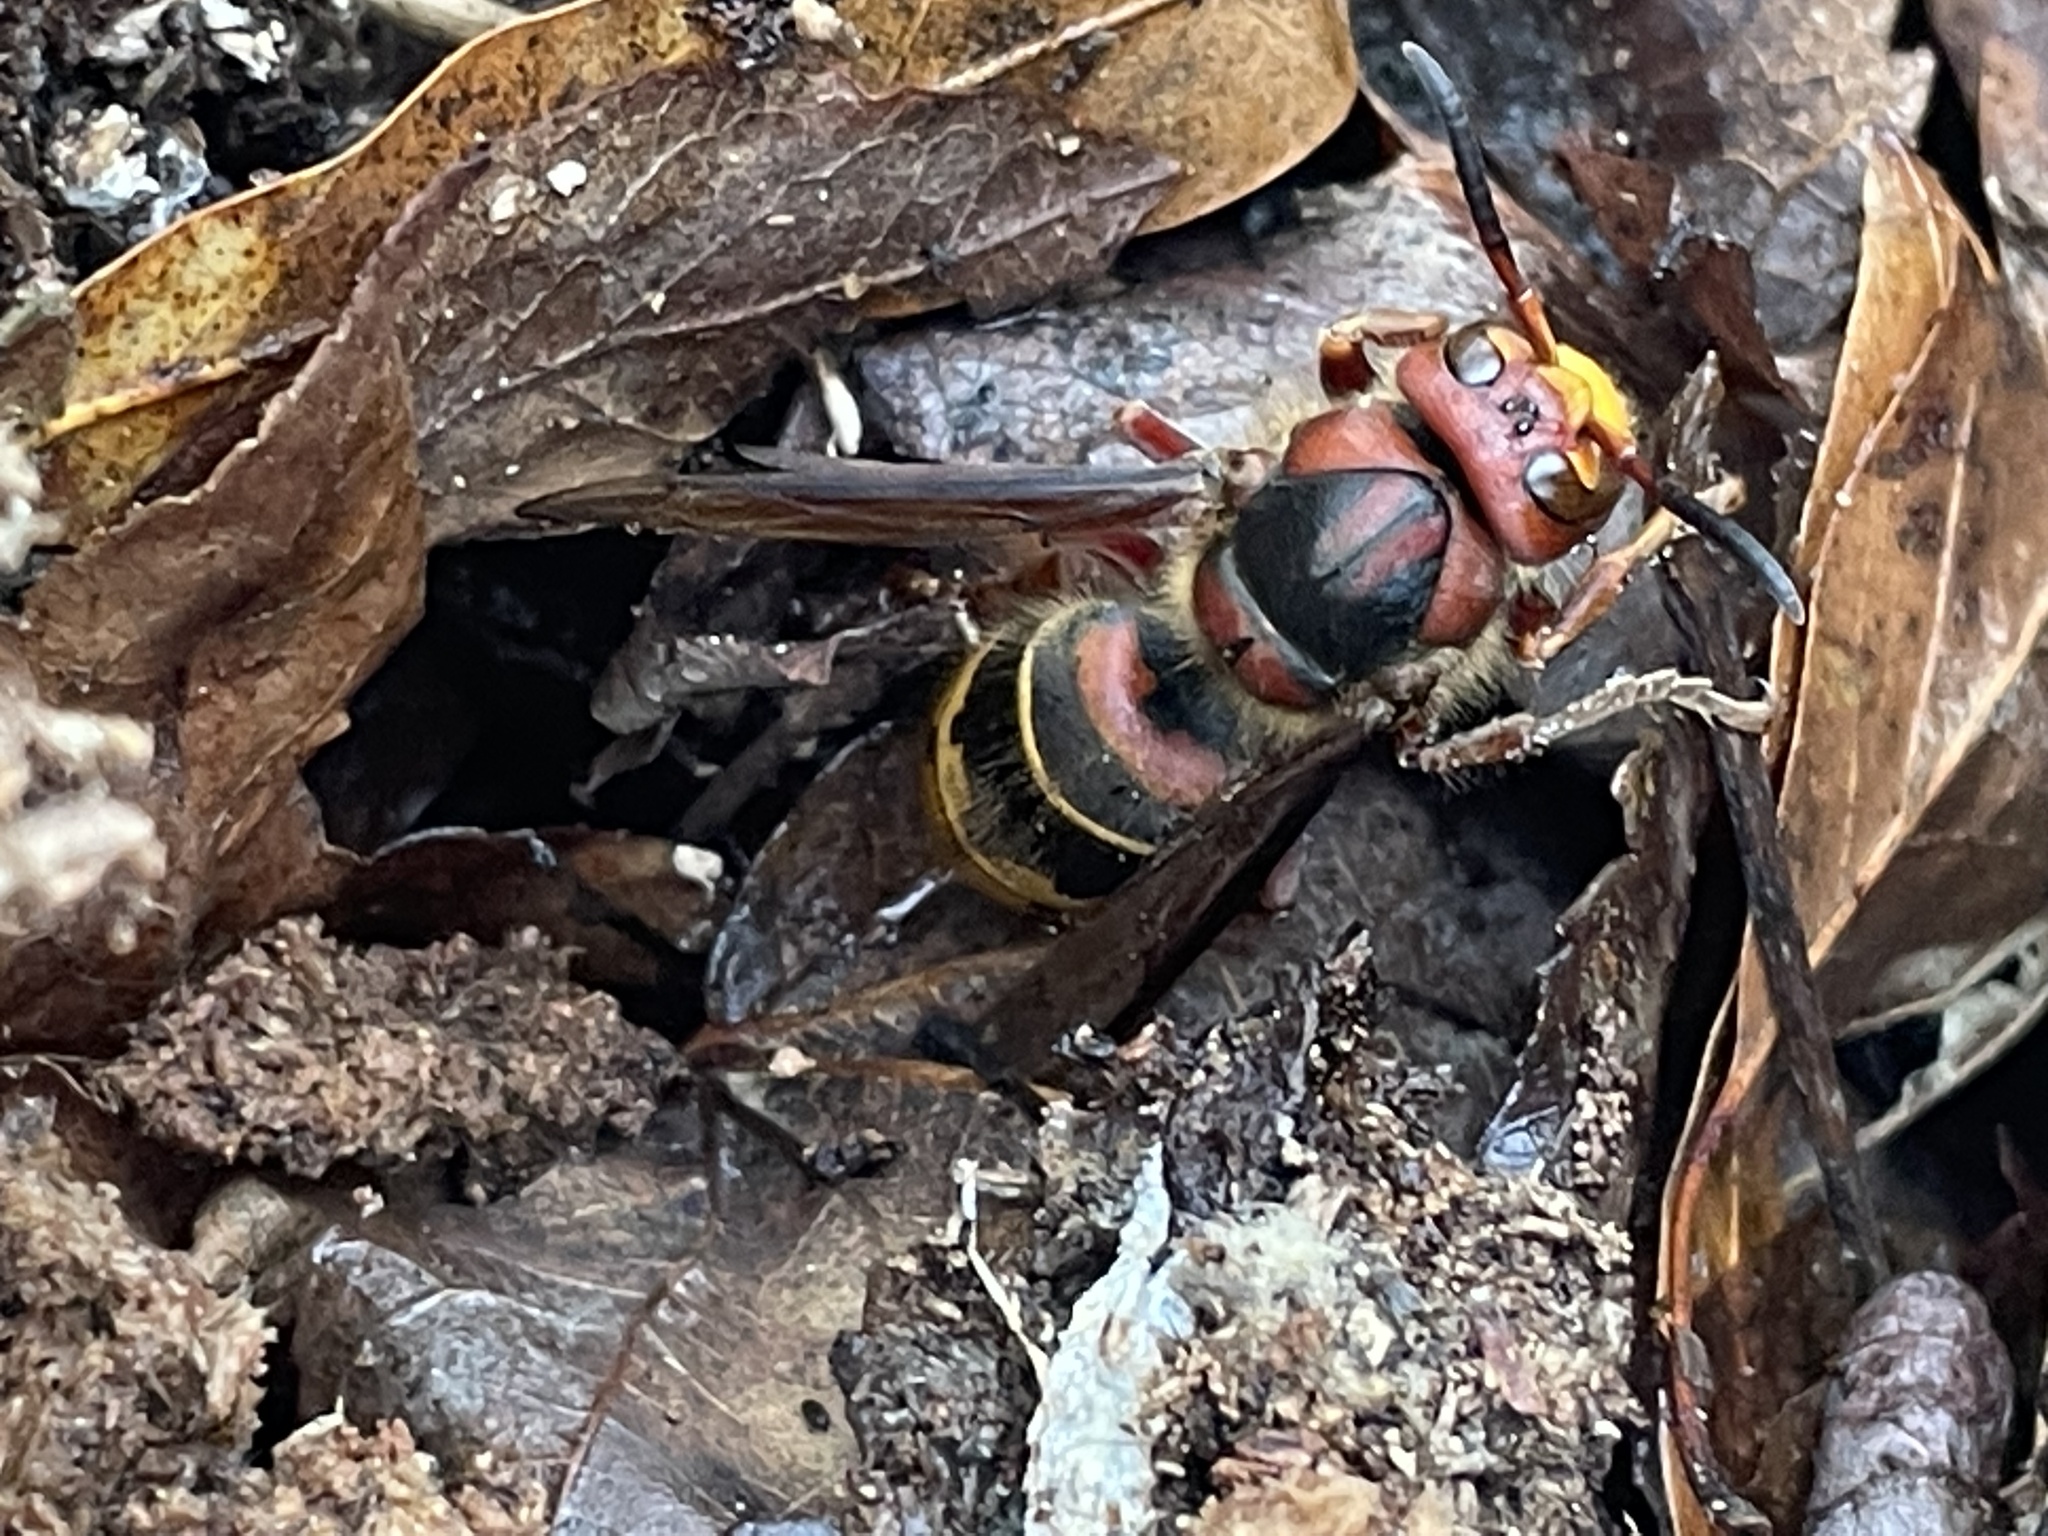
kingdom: Animalia
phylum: Arthropoda
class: Insecta
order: Hymenoptera
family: Vespidae
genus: Vespa
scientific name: Vespa crabro
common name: Hornet
